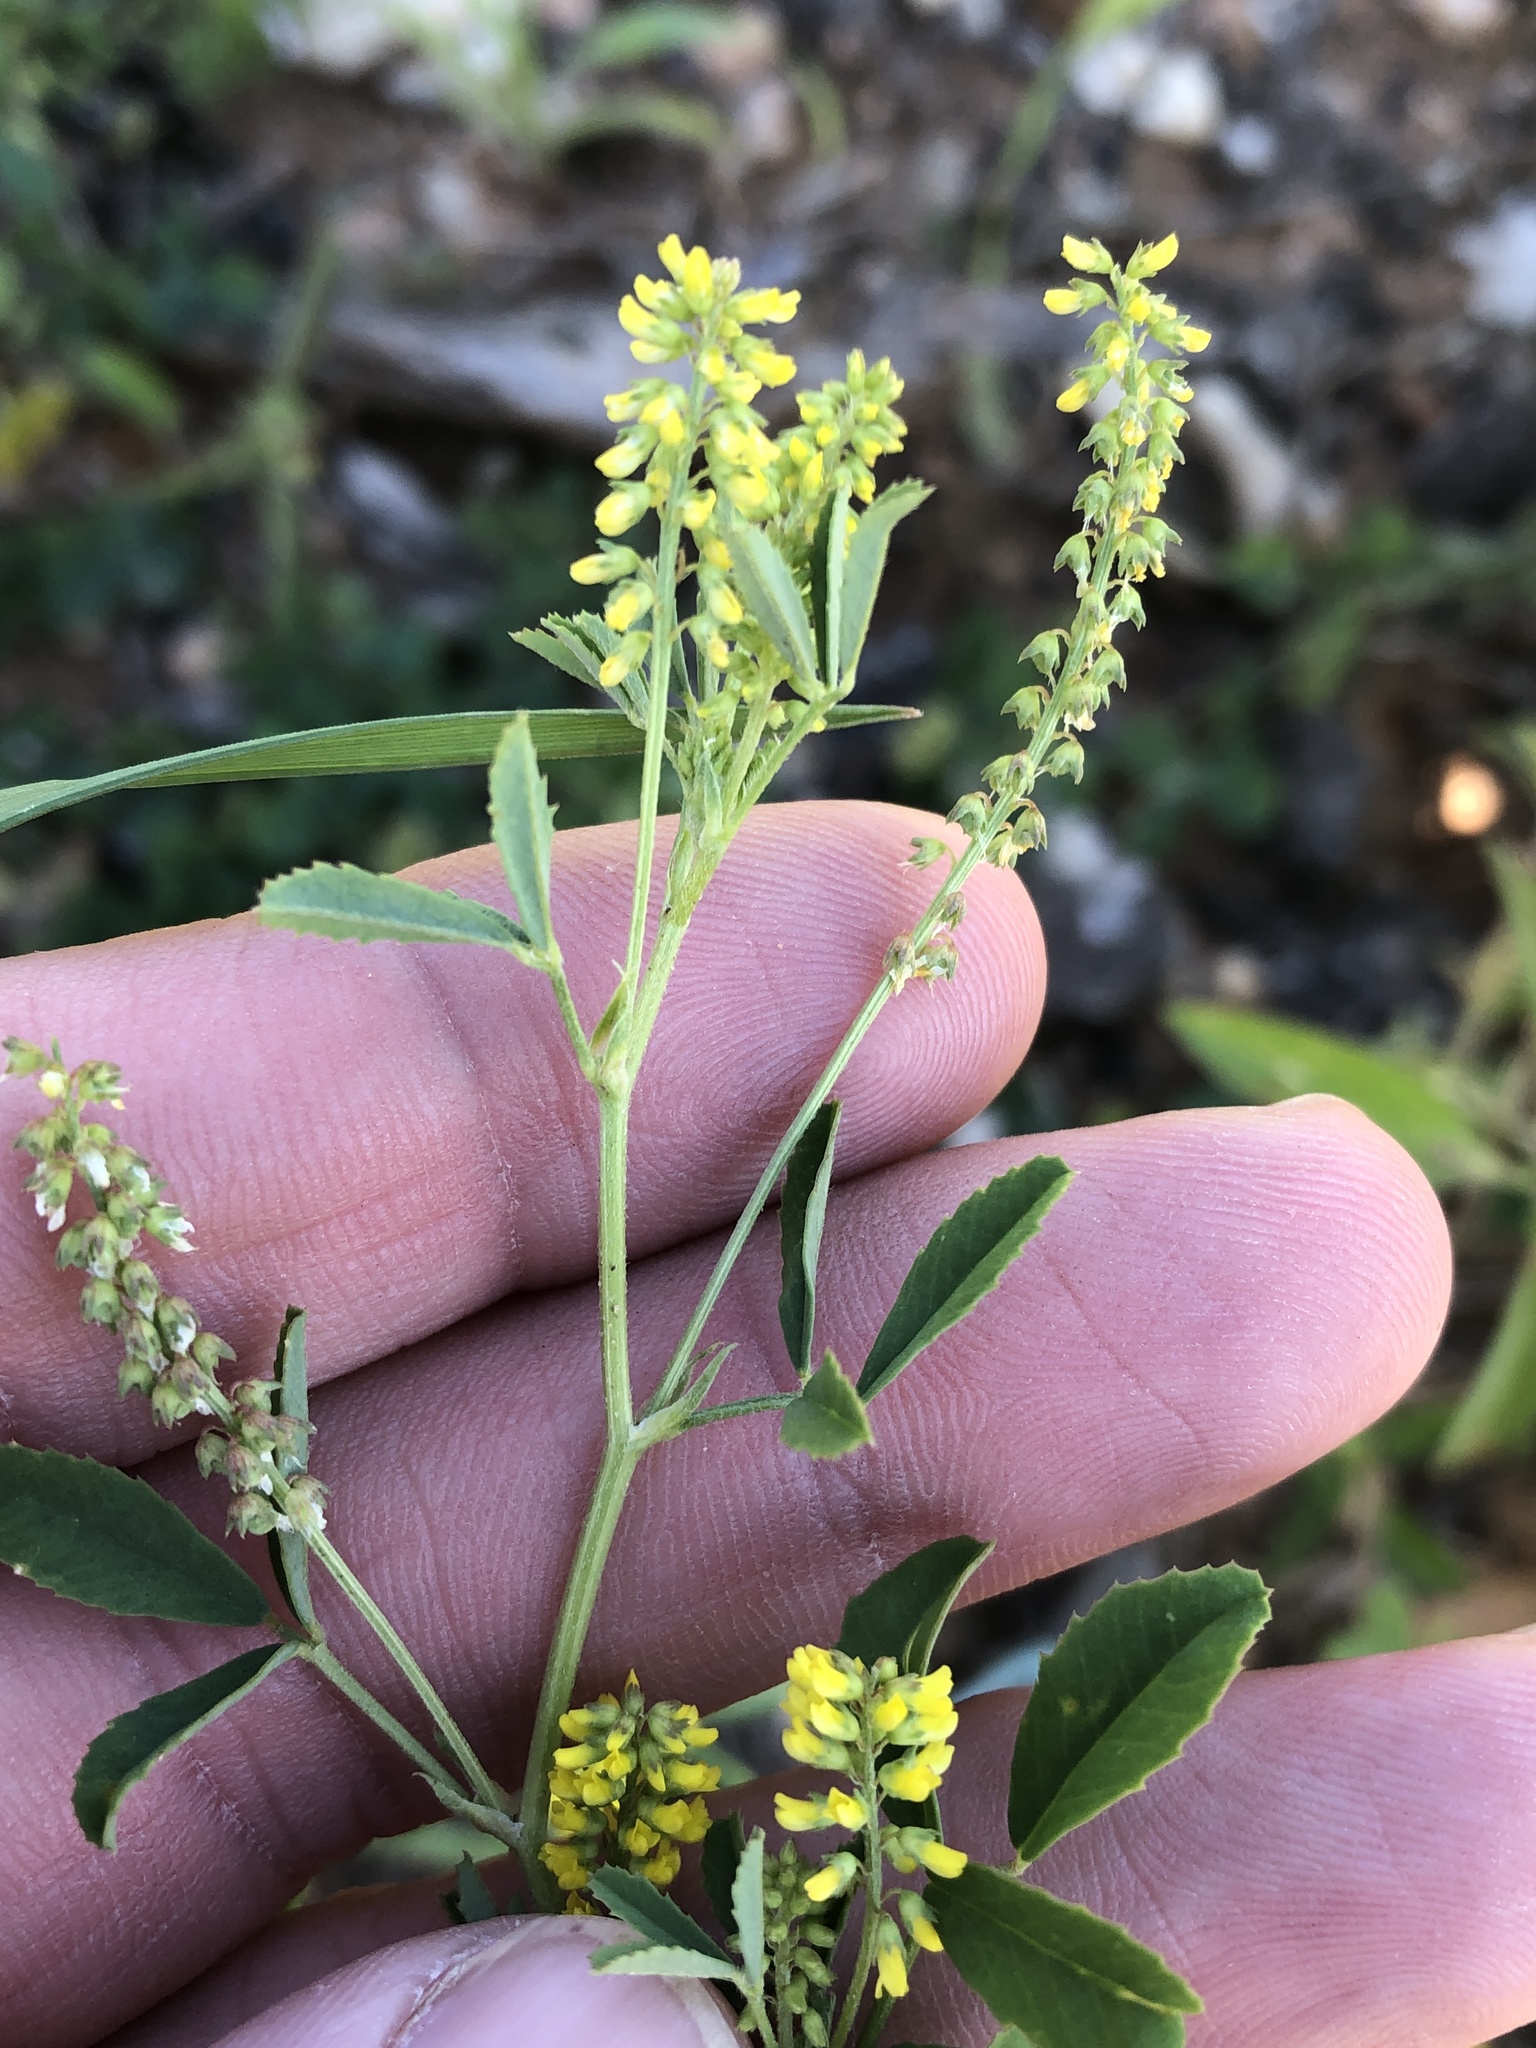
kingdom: Plantae
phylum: Tracheophyta
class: Magnoliopsida
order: Fabales
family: Fabaceae
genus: Melilotus
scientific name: Melilotus indicus
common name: Small melilot
